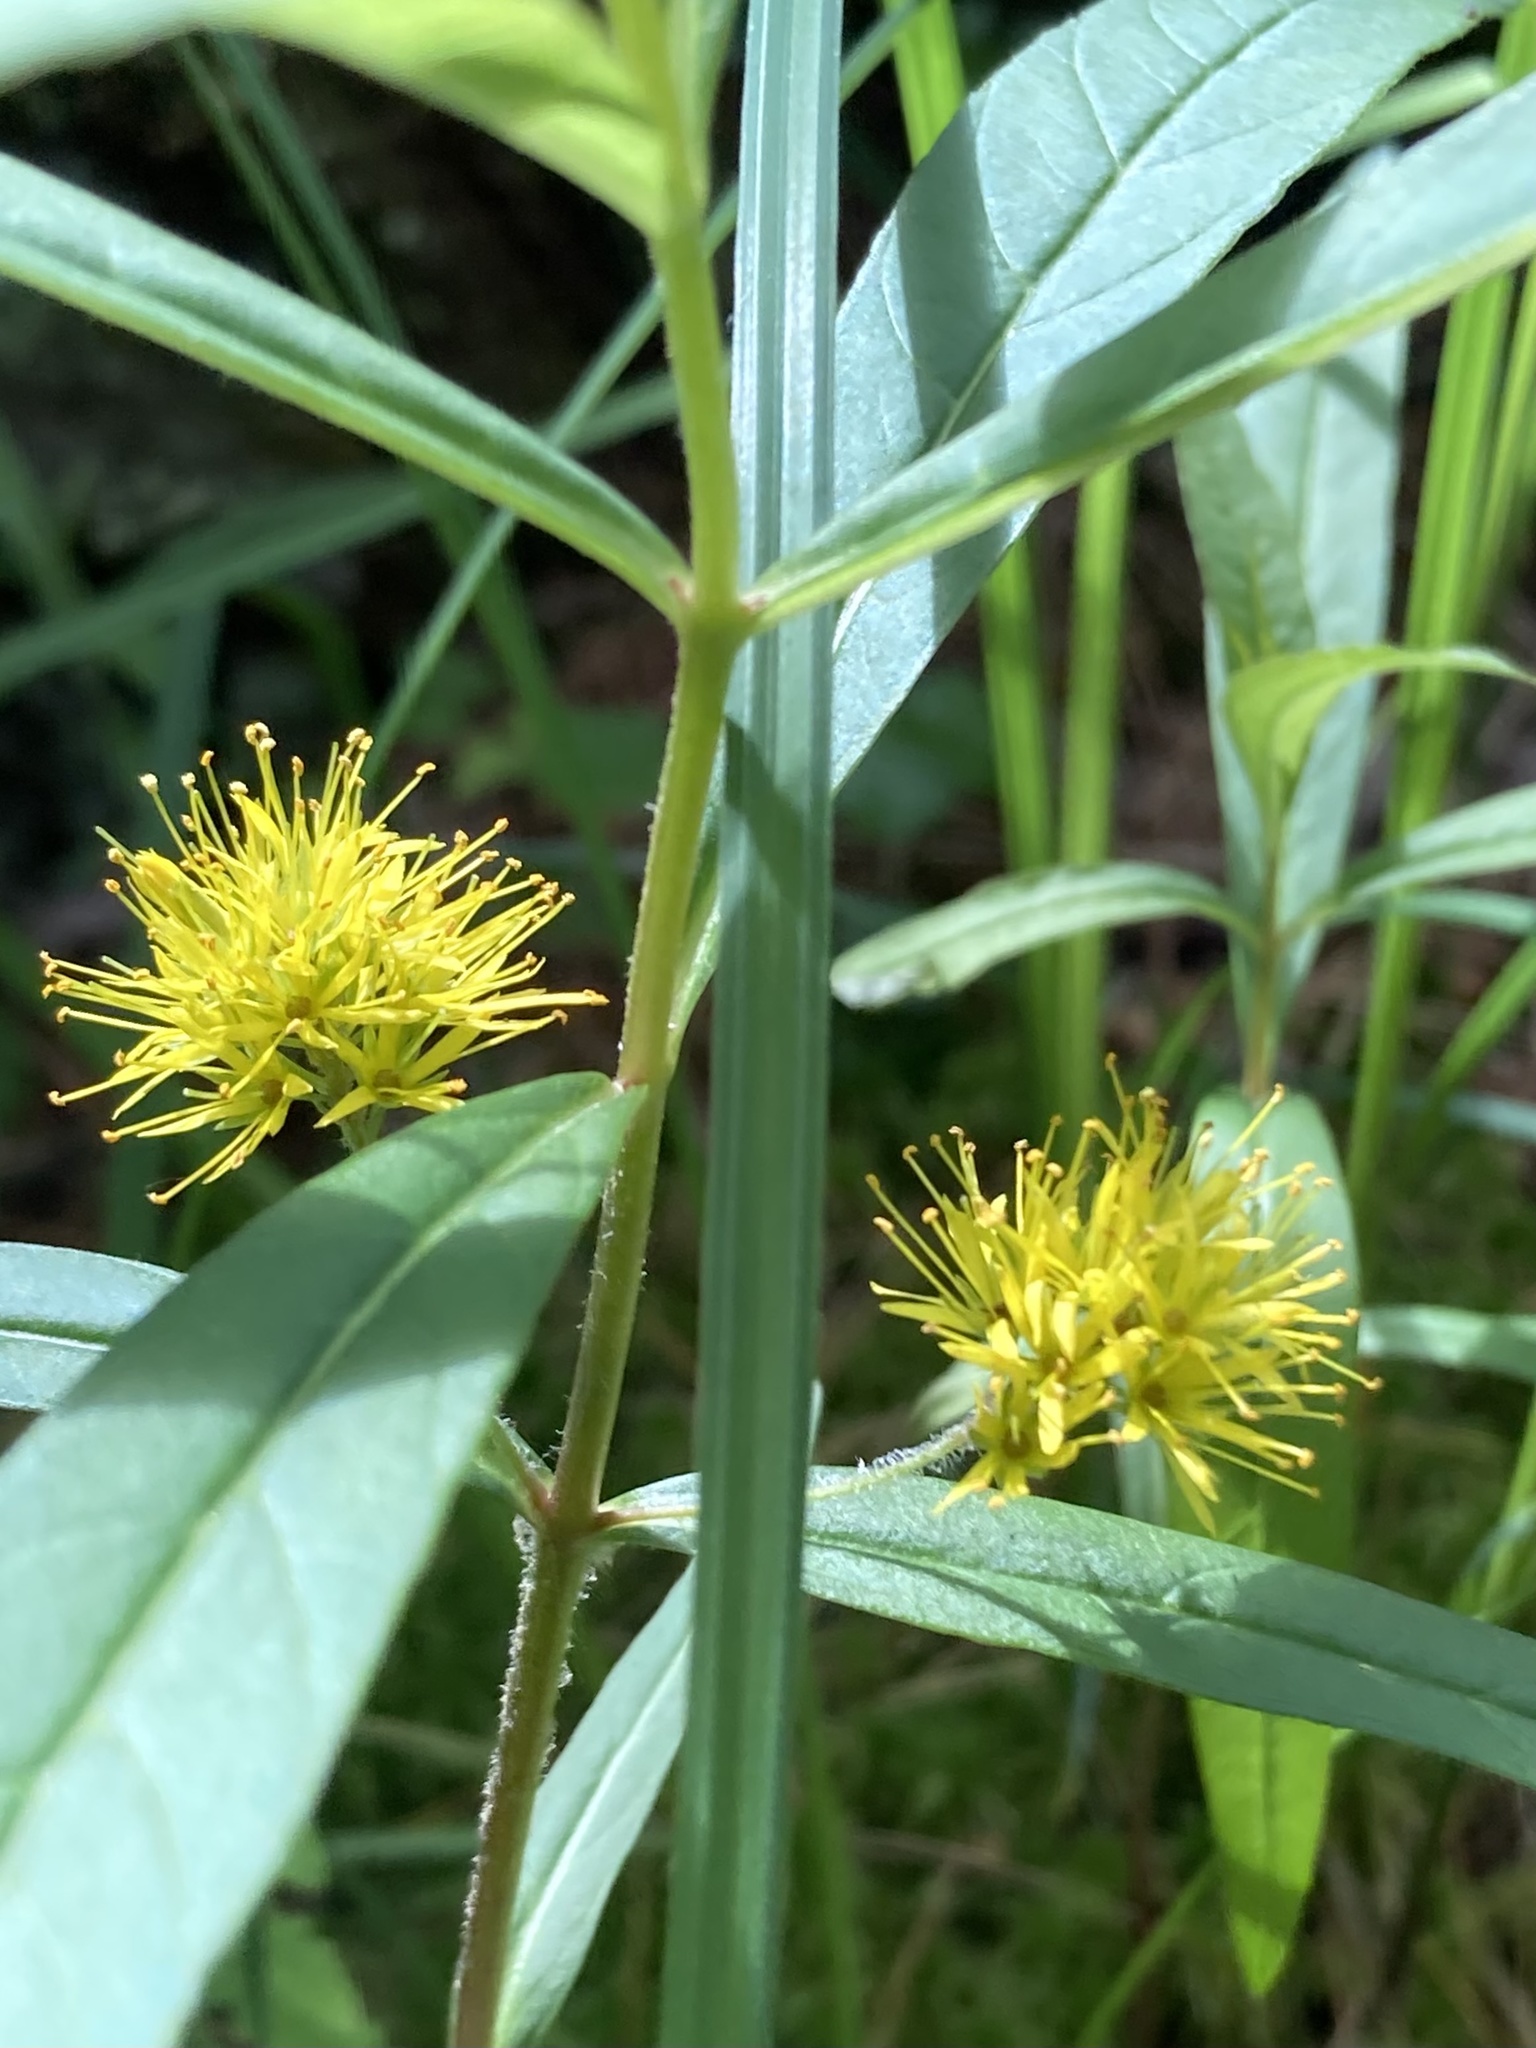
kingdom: Plantae
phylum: Tracheophyta
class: Magnoliopsida
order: Ericales
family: Primulaceae
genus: Lysimachia
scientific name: Lysimachia thyrsiflora
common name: Tufted loosestrife
